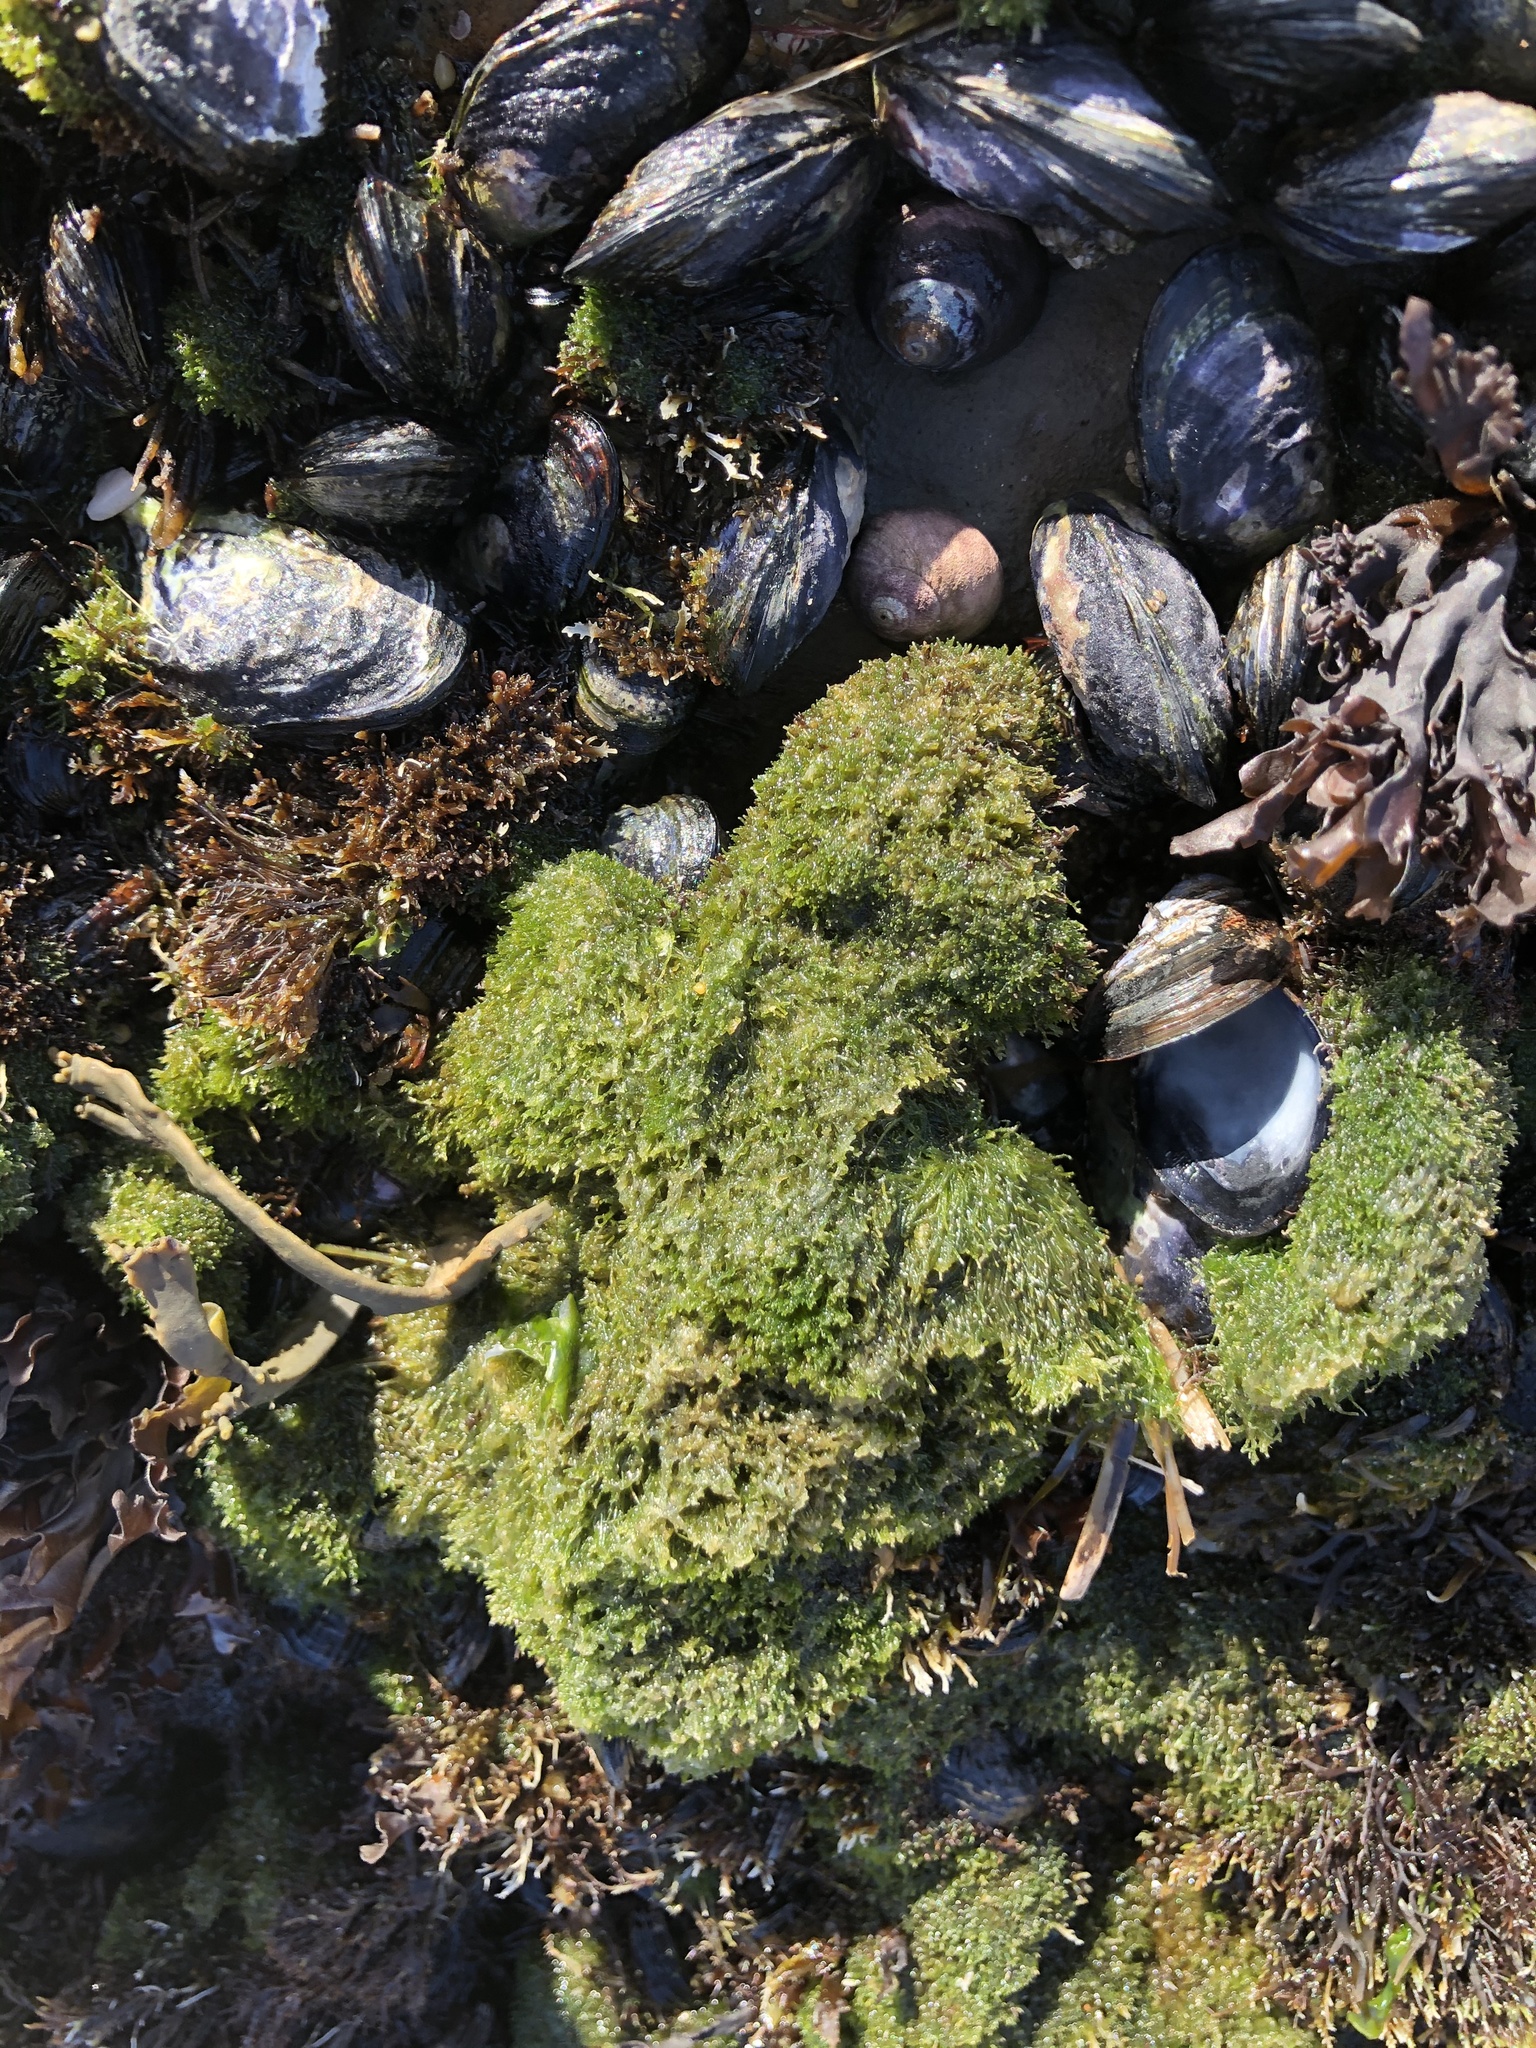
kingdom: Plantae
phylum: Chlorophyta
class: Ulvophyceae
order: Cladophorales
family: Cladophoraceae
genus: Cladophora
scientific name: Cladophora columbiana
